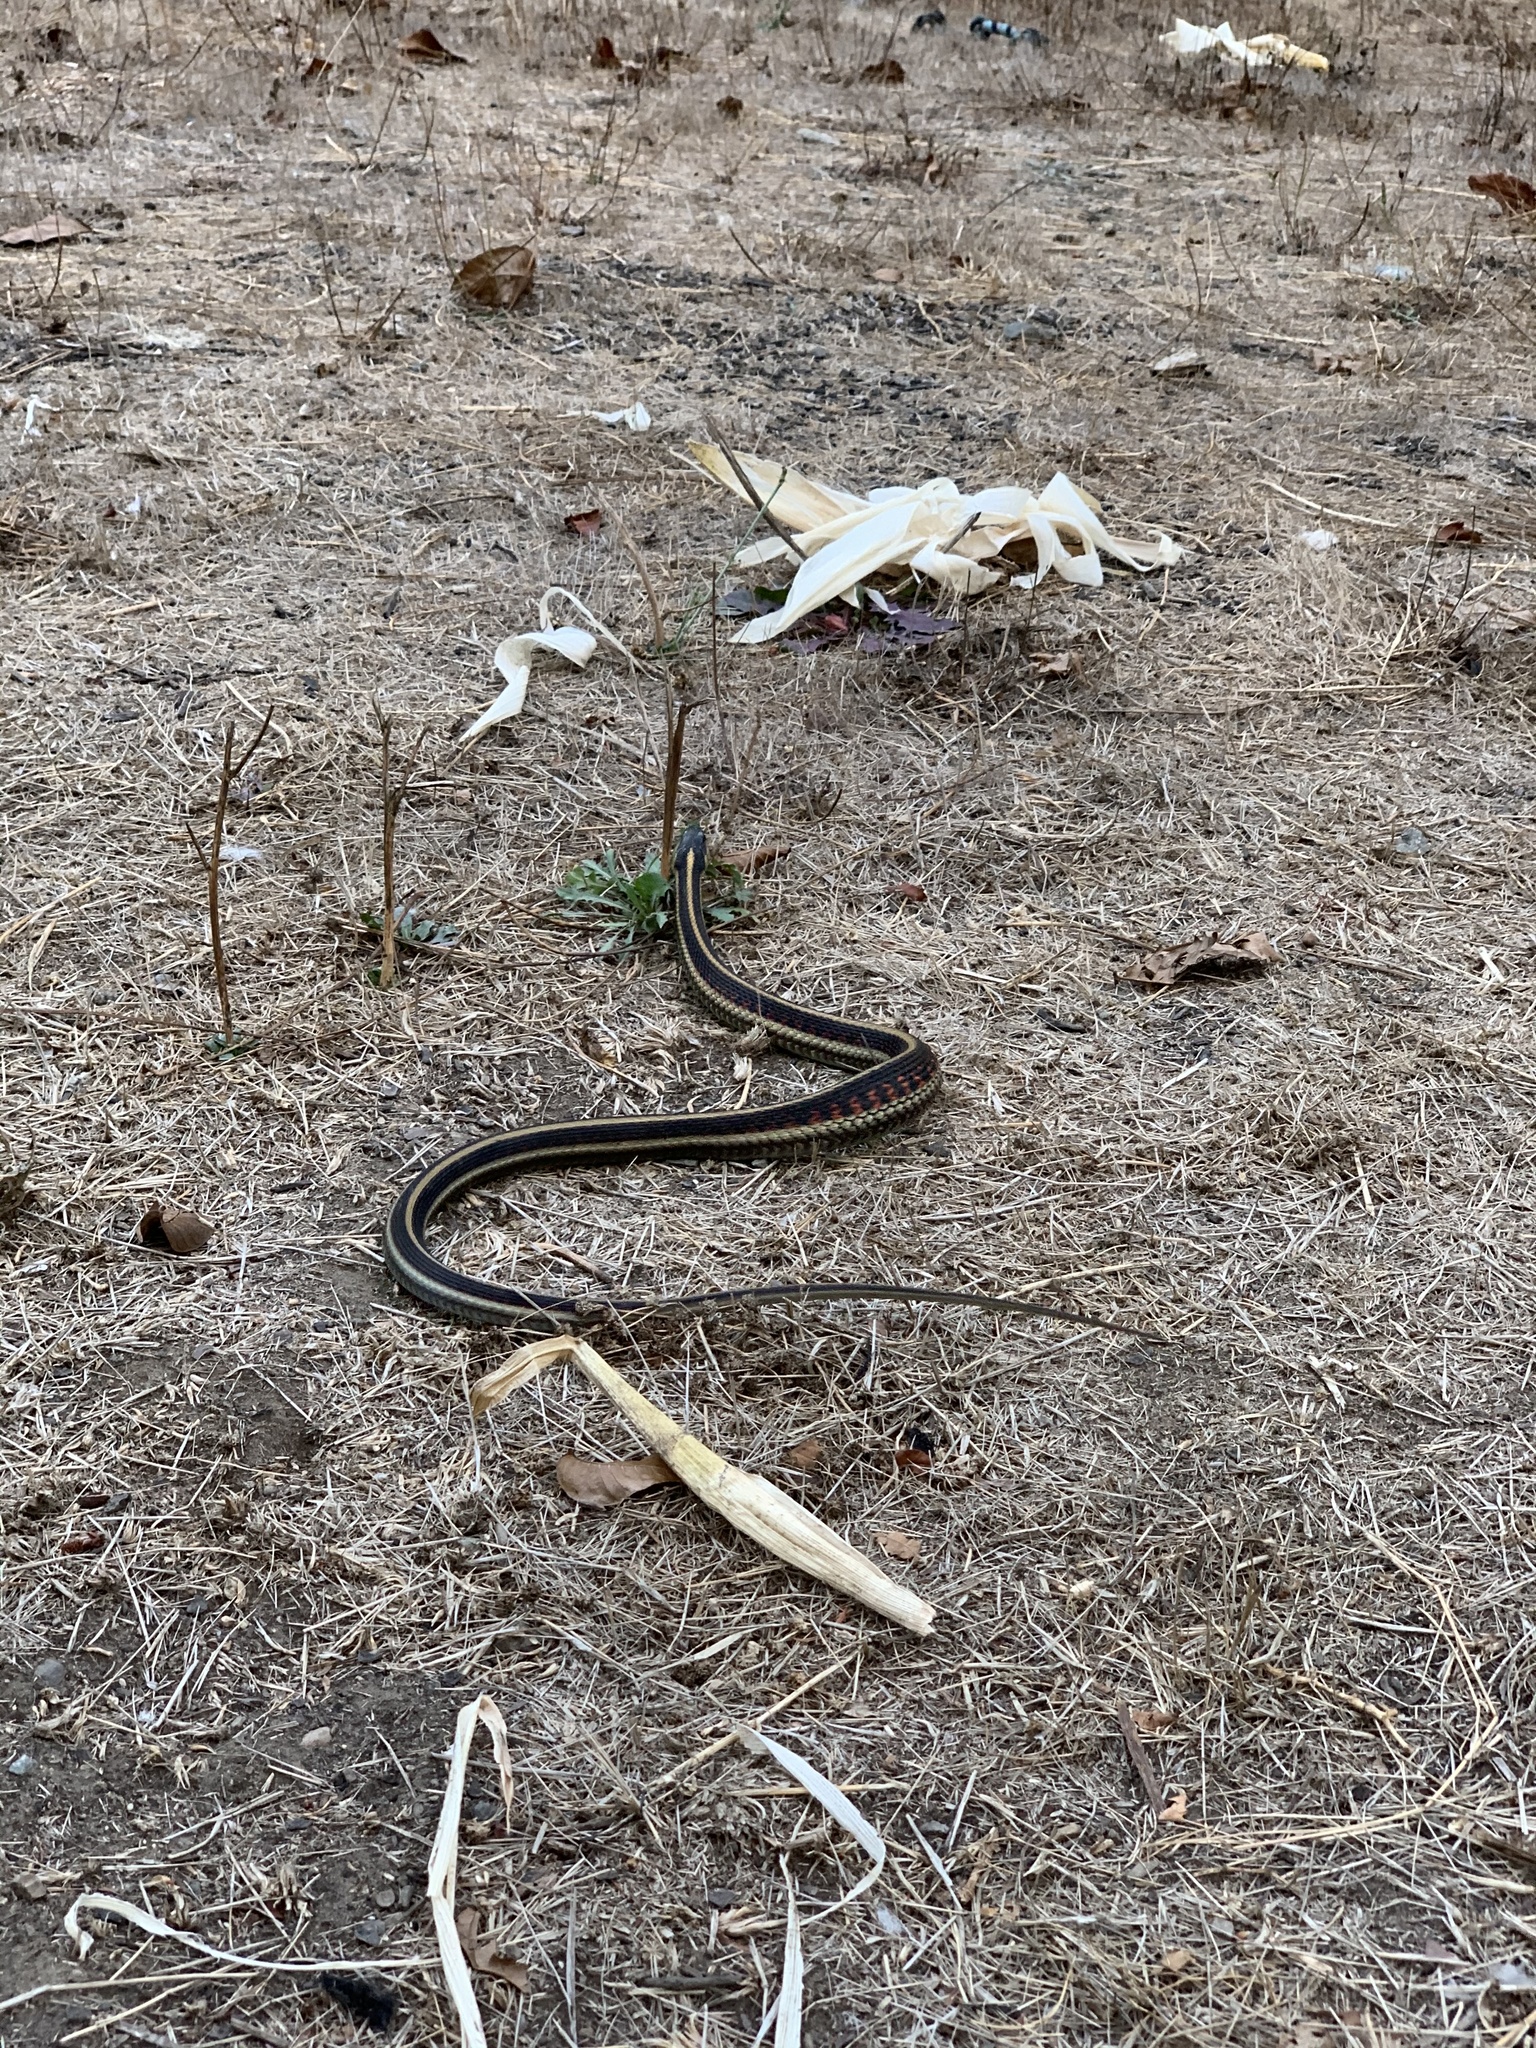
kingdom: Animalia
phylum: Chordata
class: Squamata
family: Colubridae
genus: Thamnophis
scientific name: Thamnophis sirtalis
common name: Common garter snake
